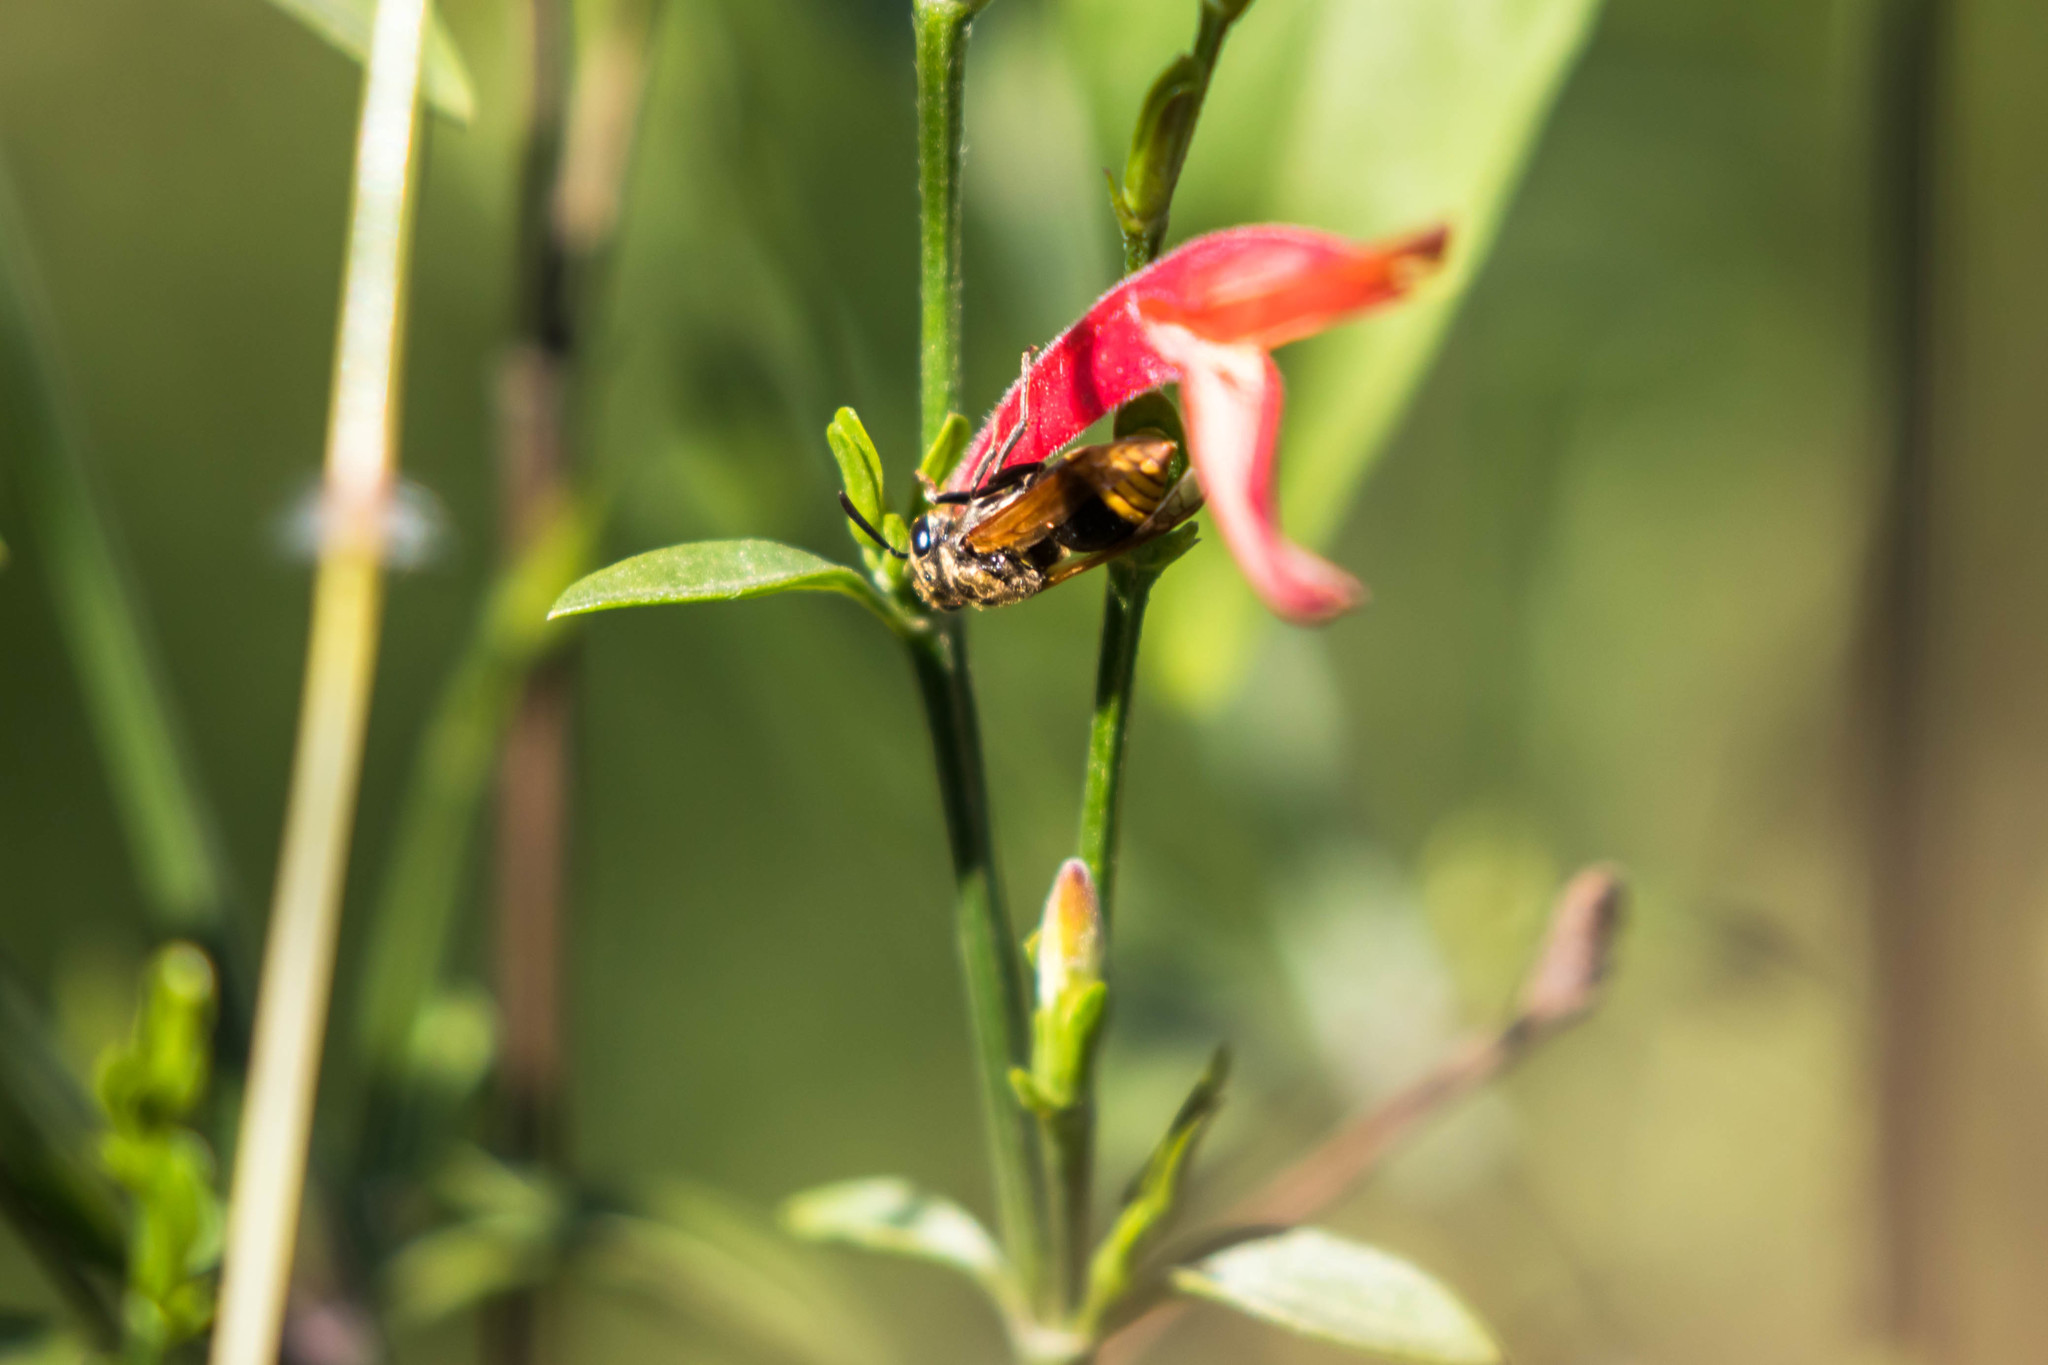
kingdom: Animalia
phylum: Arthropoda
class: Insecta
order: Hymenoptera
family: Vespidae
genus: Brachygastra
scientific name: Brachygastra mellifica
